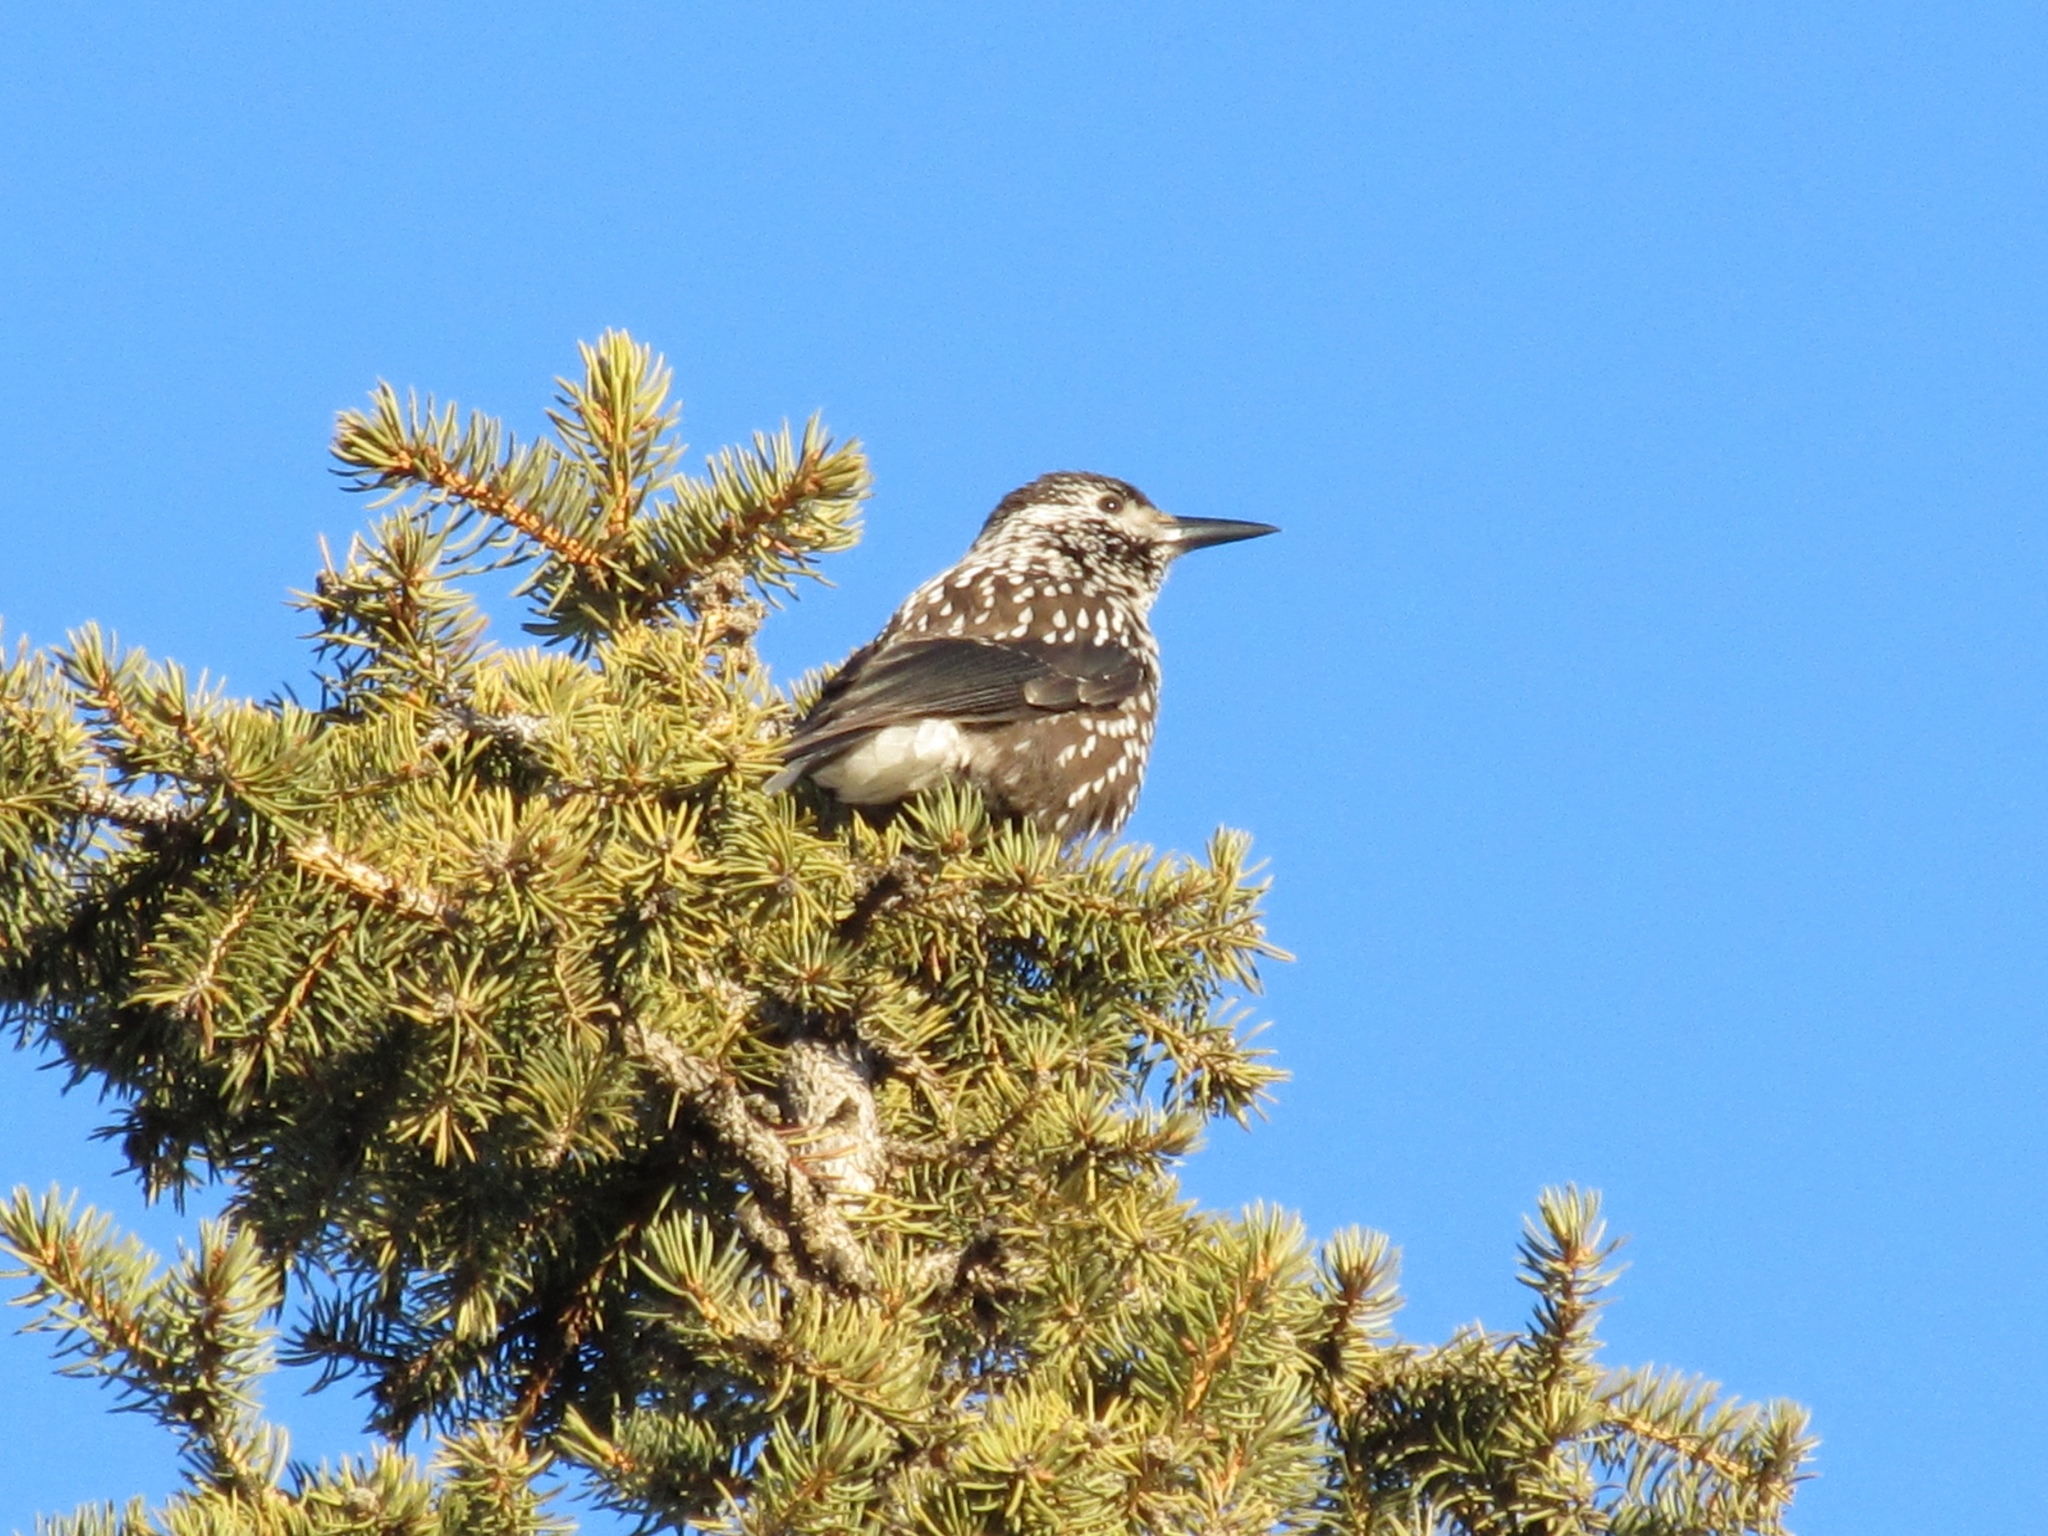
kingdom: Animalia
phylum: Chordata
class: Aves
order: Passeriformes
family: Corvidae
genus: Nucifraga
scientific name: Nucifraga caryocatactes
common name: Spotted nutcracker
